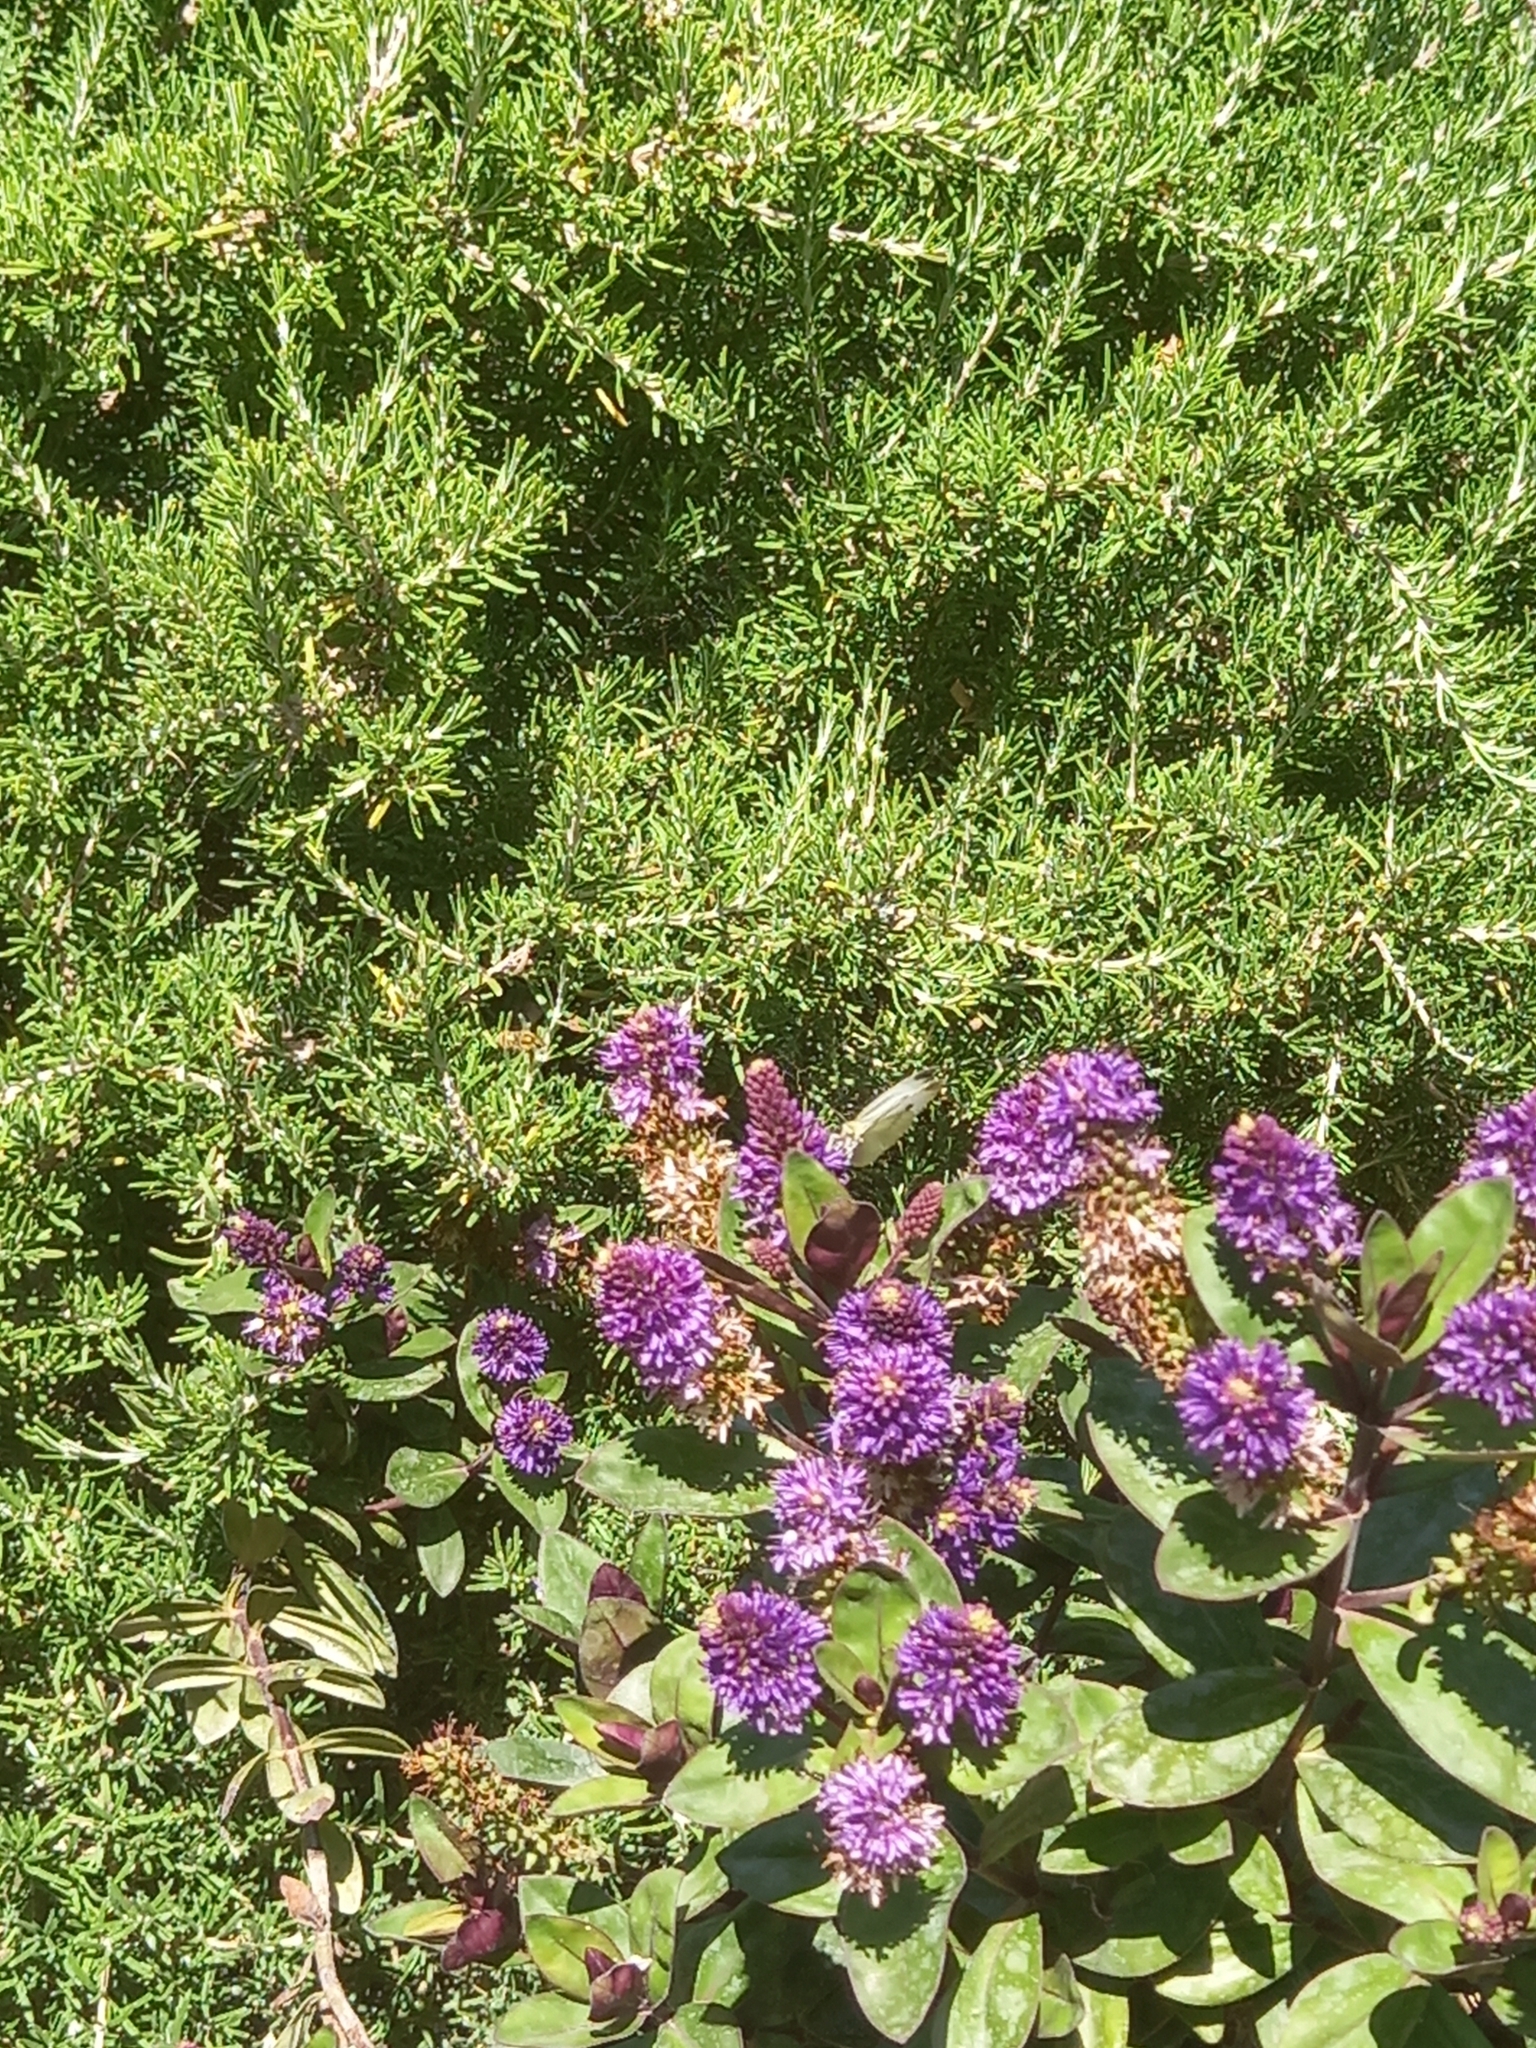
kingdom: Animalia
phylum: Arthropoda
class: Insecta
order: Lepidoptera
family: Pieridae
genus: Pieris
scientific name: Pieris rapae
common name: Small white
